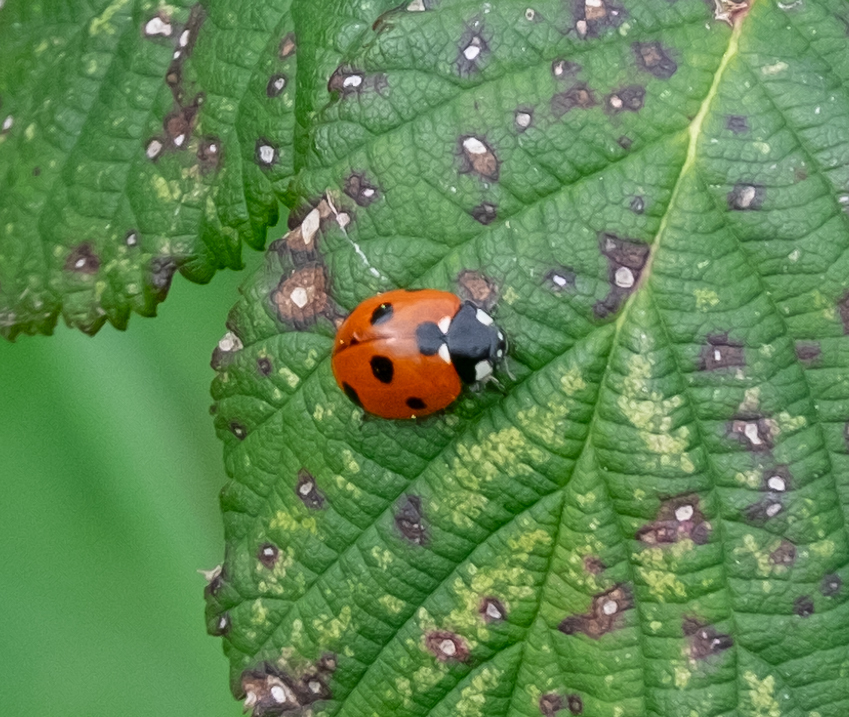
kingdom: Animalia
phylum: Arthropoda
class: Insecta
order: Coleoptera
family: Coccinellidae
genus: Coccinella
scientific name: Coccinella septempunctata
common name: Sevenspotted lady beetle
